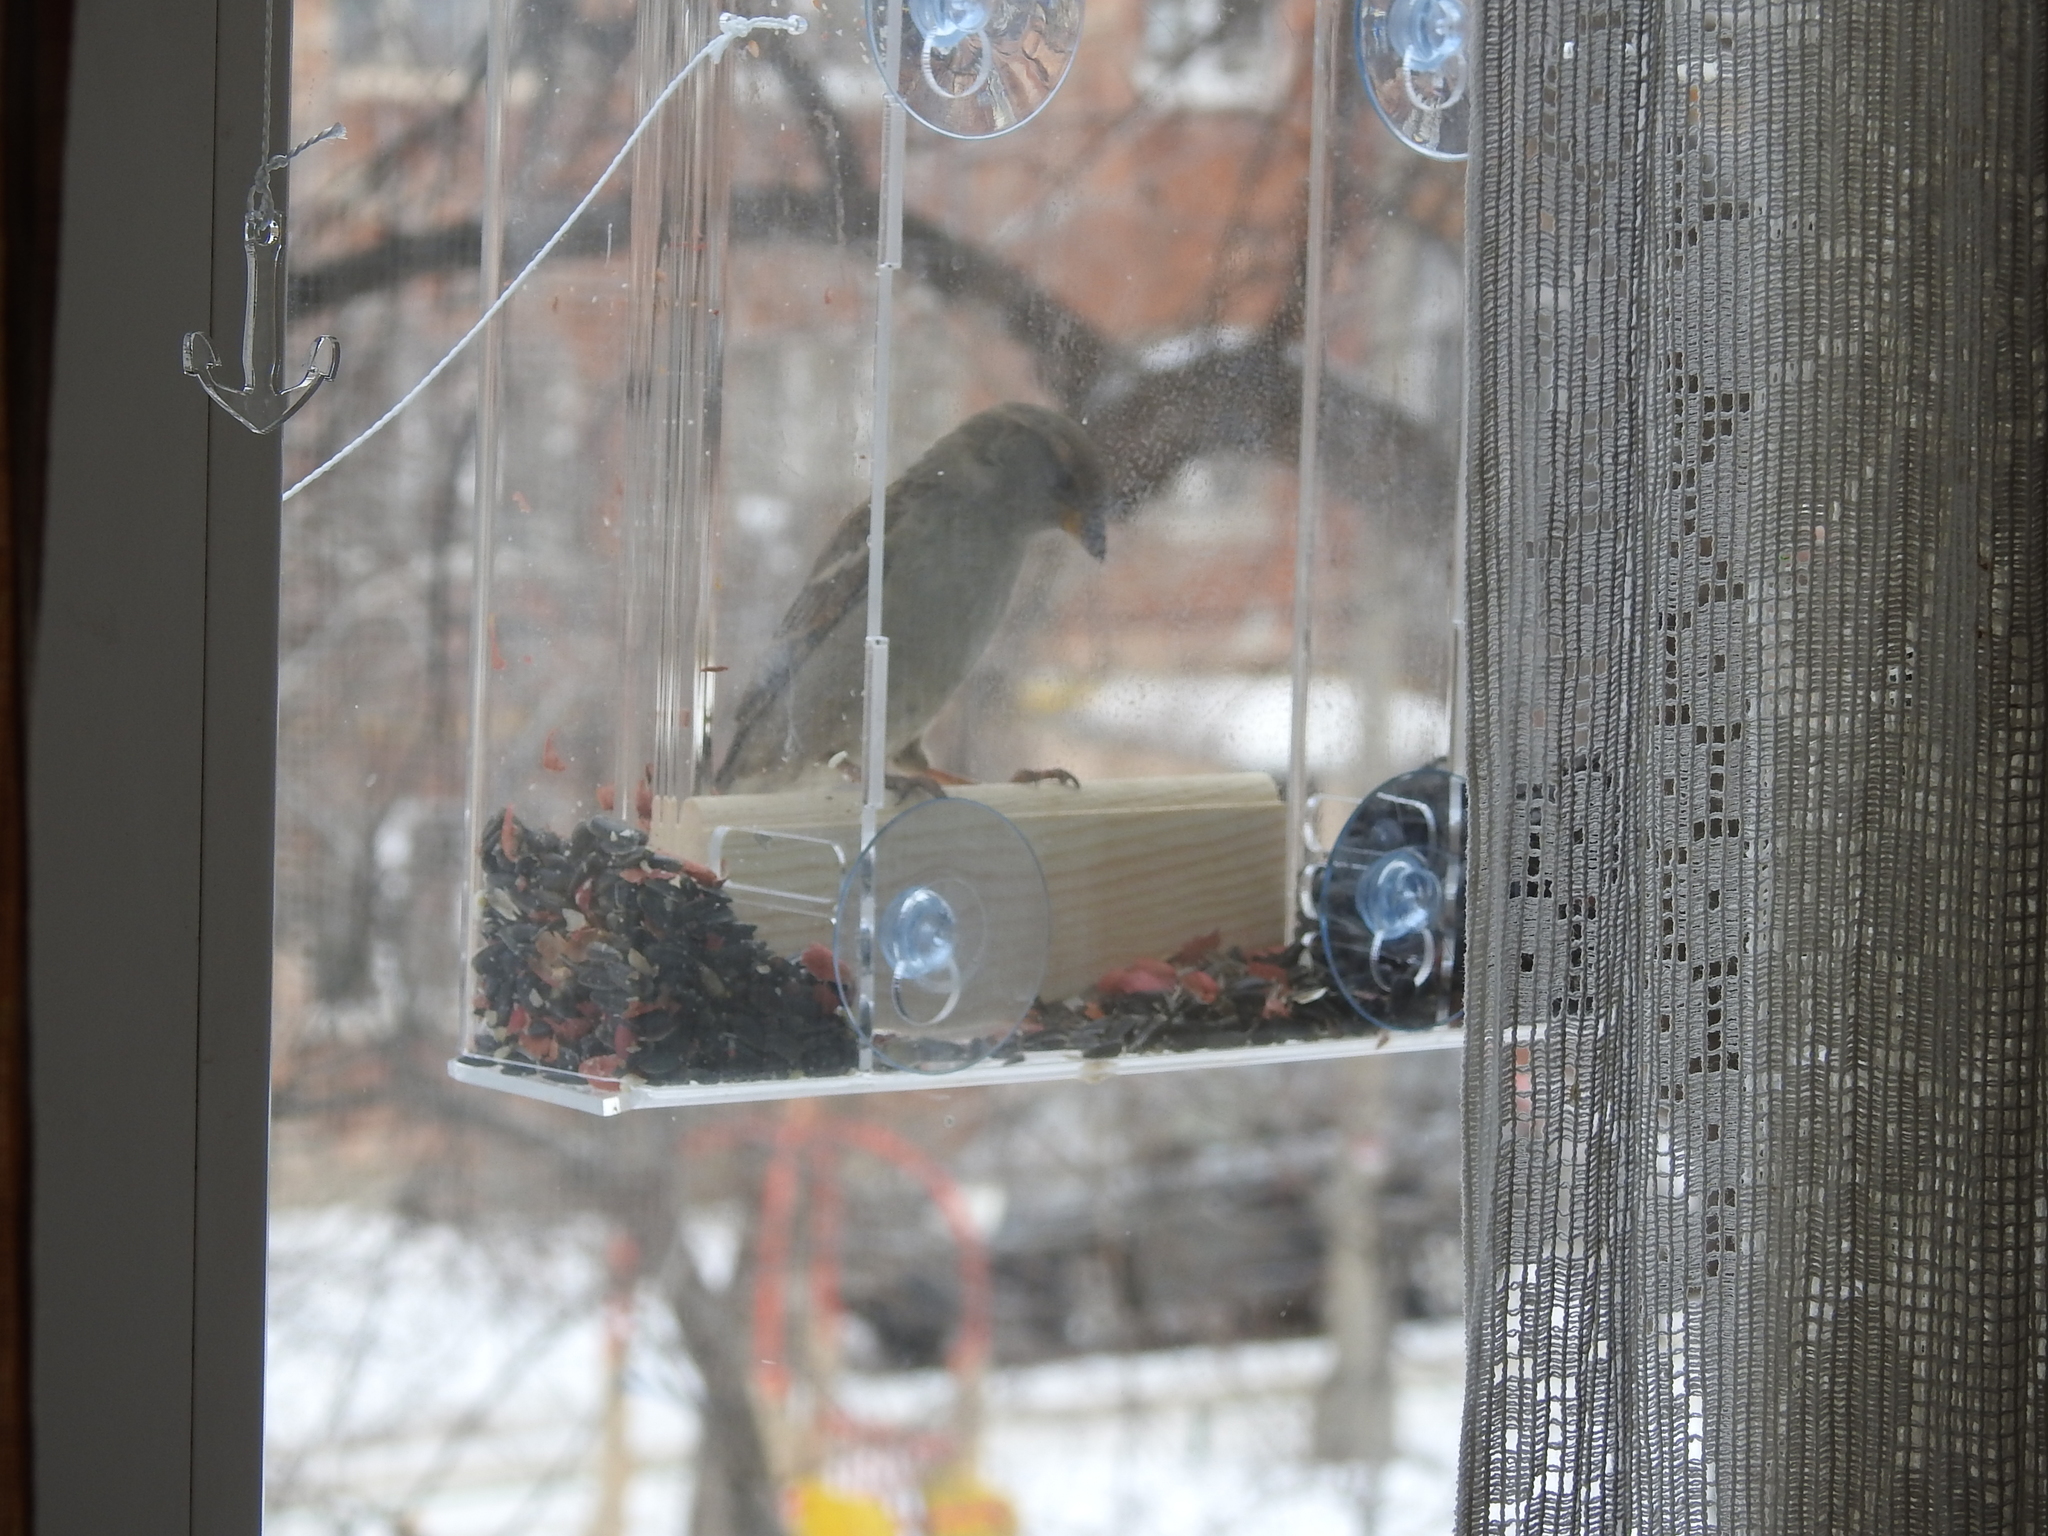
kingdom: Animalia
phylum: Chordata
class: Aves
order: Passeriformes
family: Passeridae
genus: Passer
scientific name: Passer domesticus
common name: House sparrow
